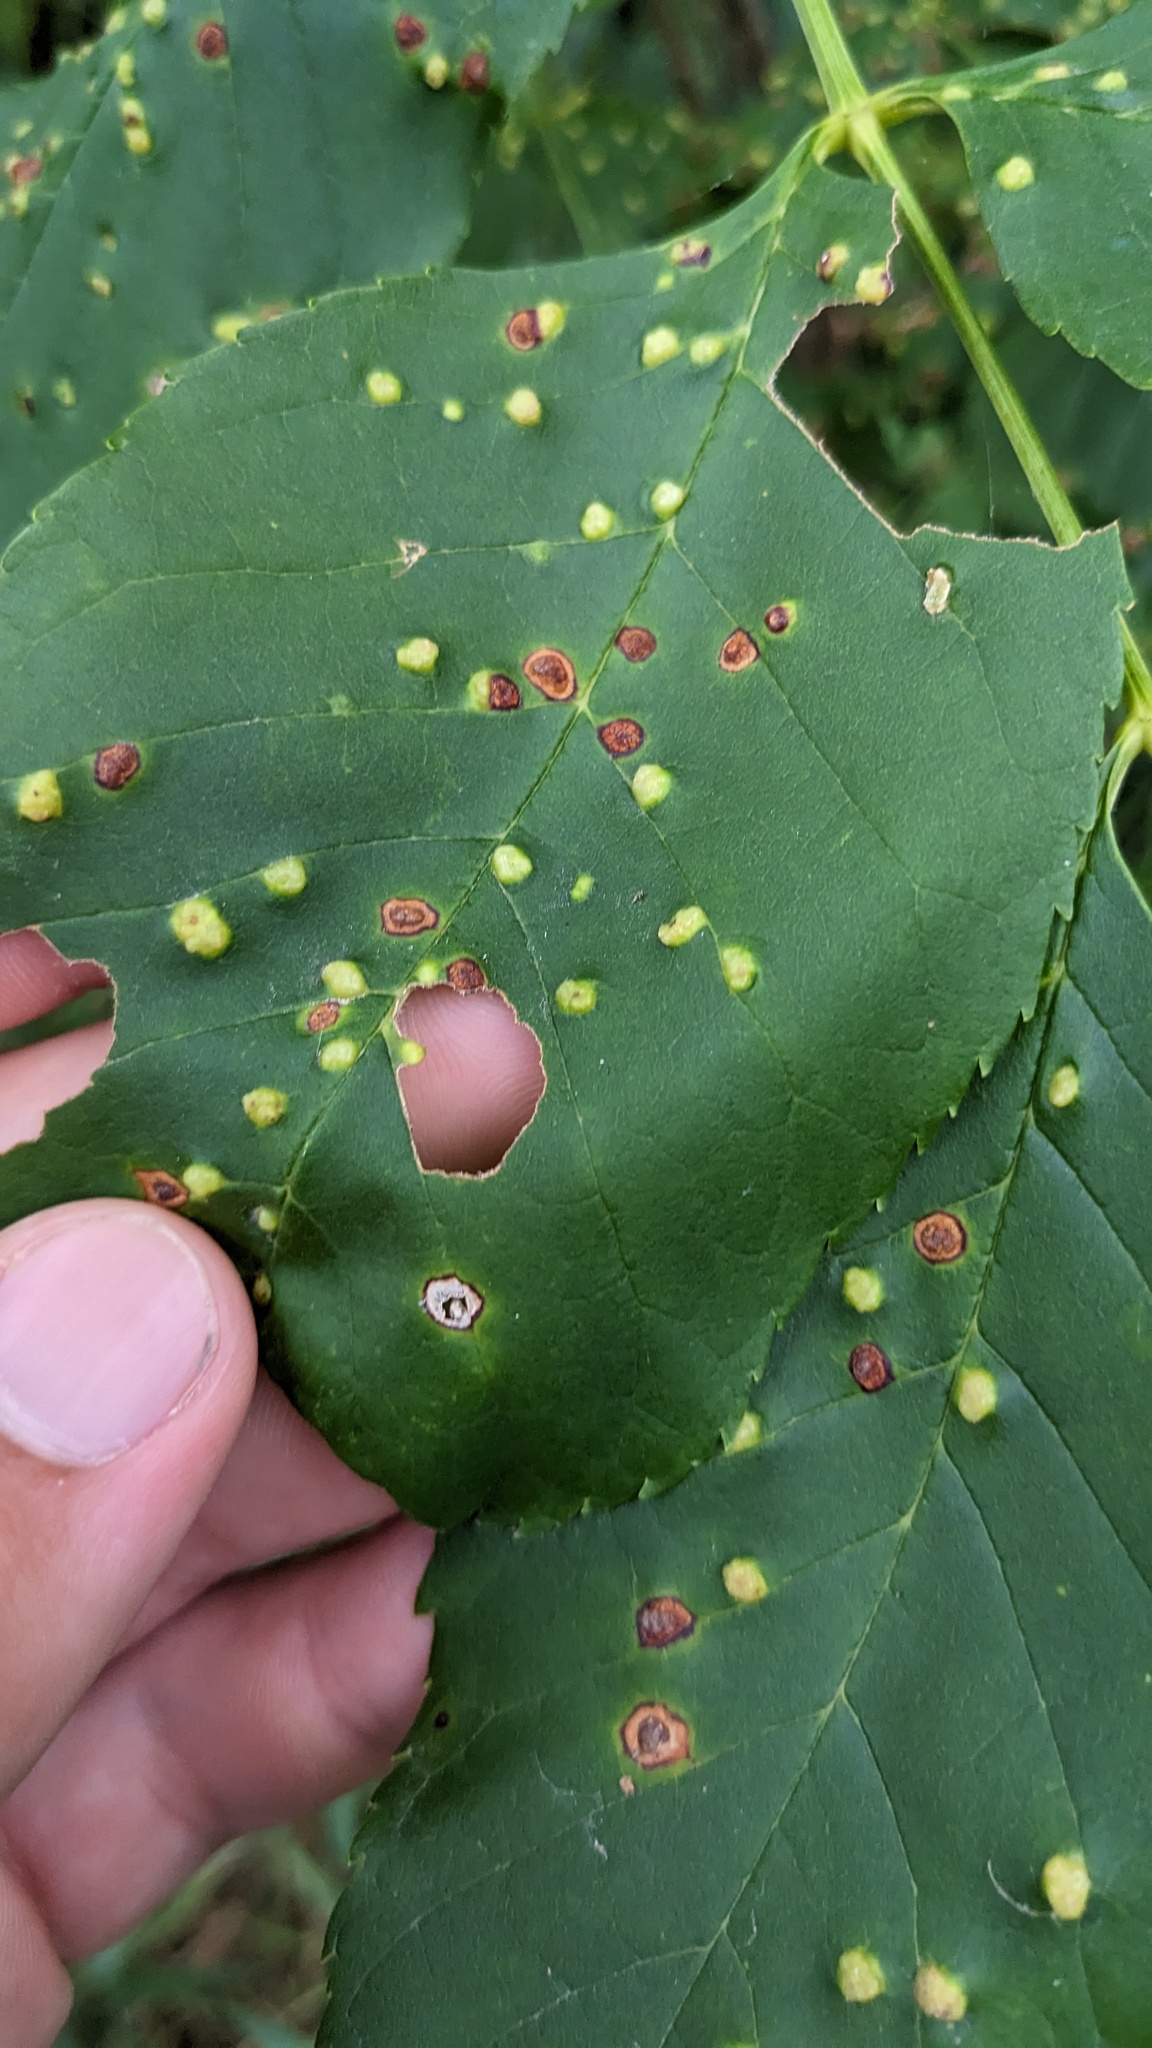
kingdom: Animalia
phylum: Arthropoda
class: Arachnida
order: Trombidiformes
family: Eriophyidae
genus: Aceria
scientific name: Aceria fraxinicola
